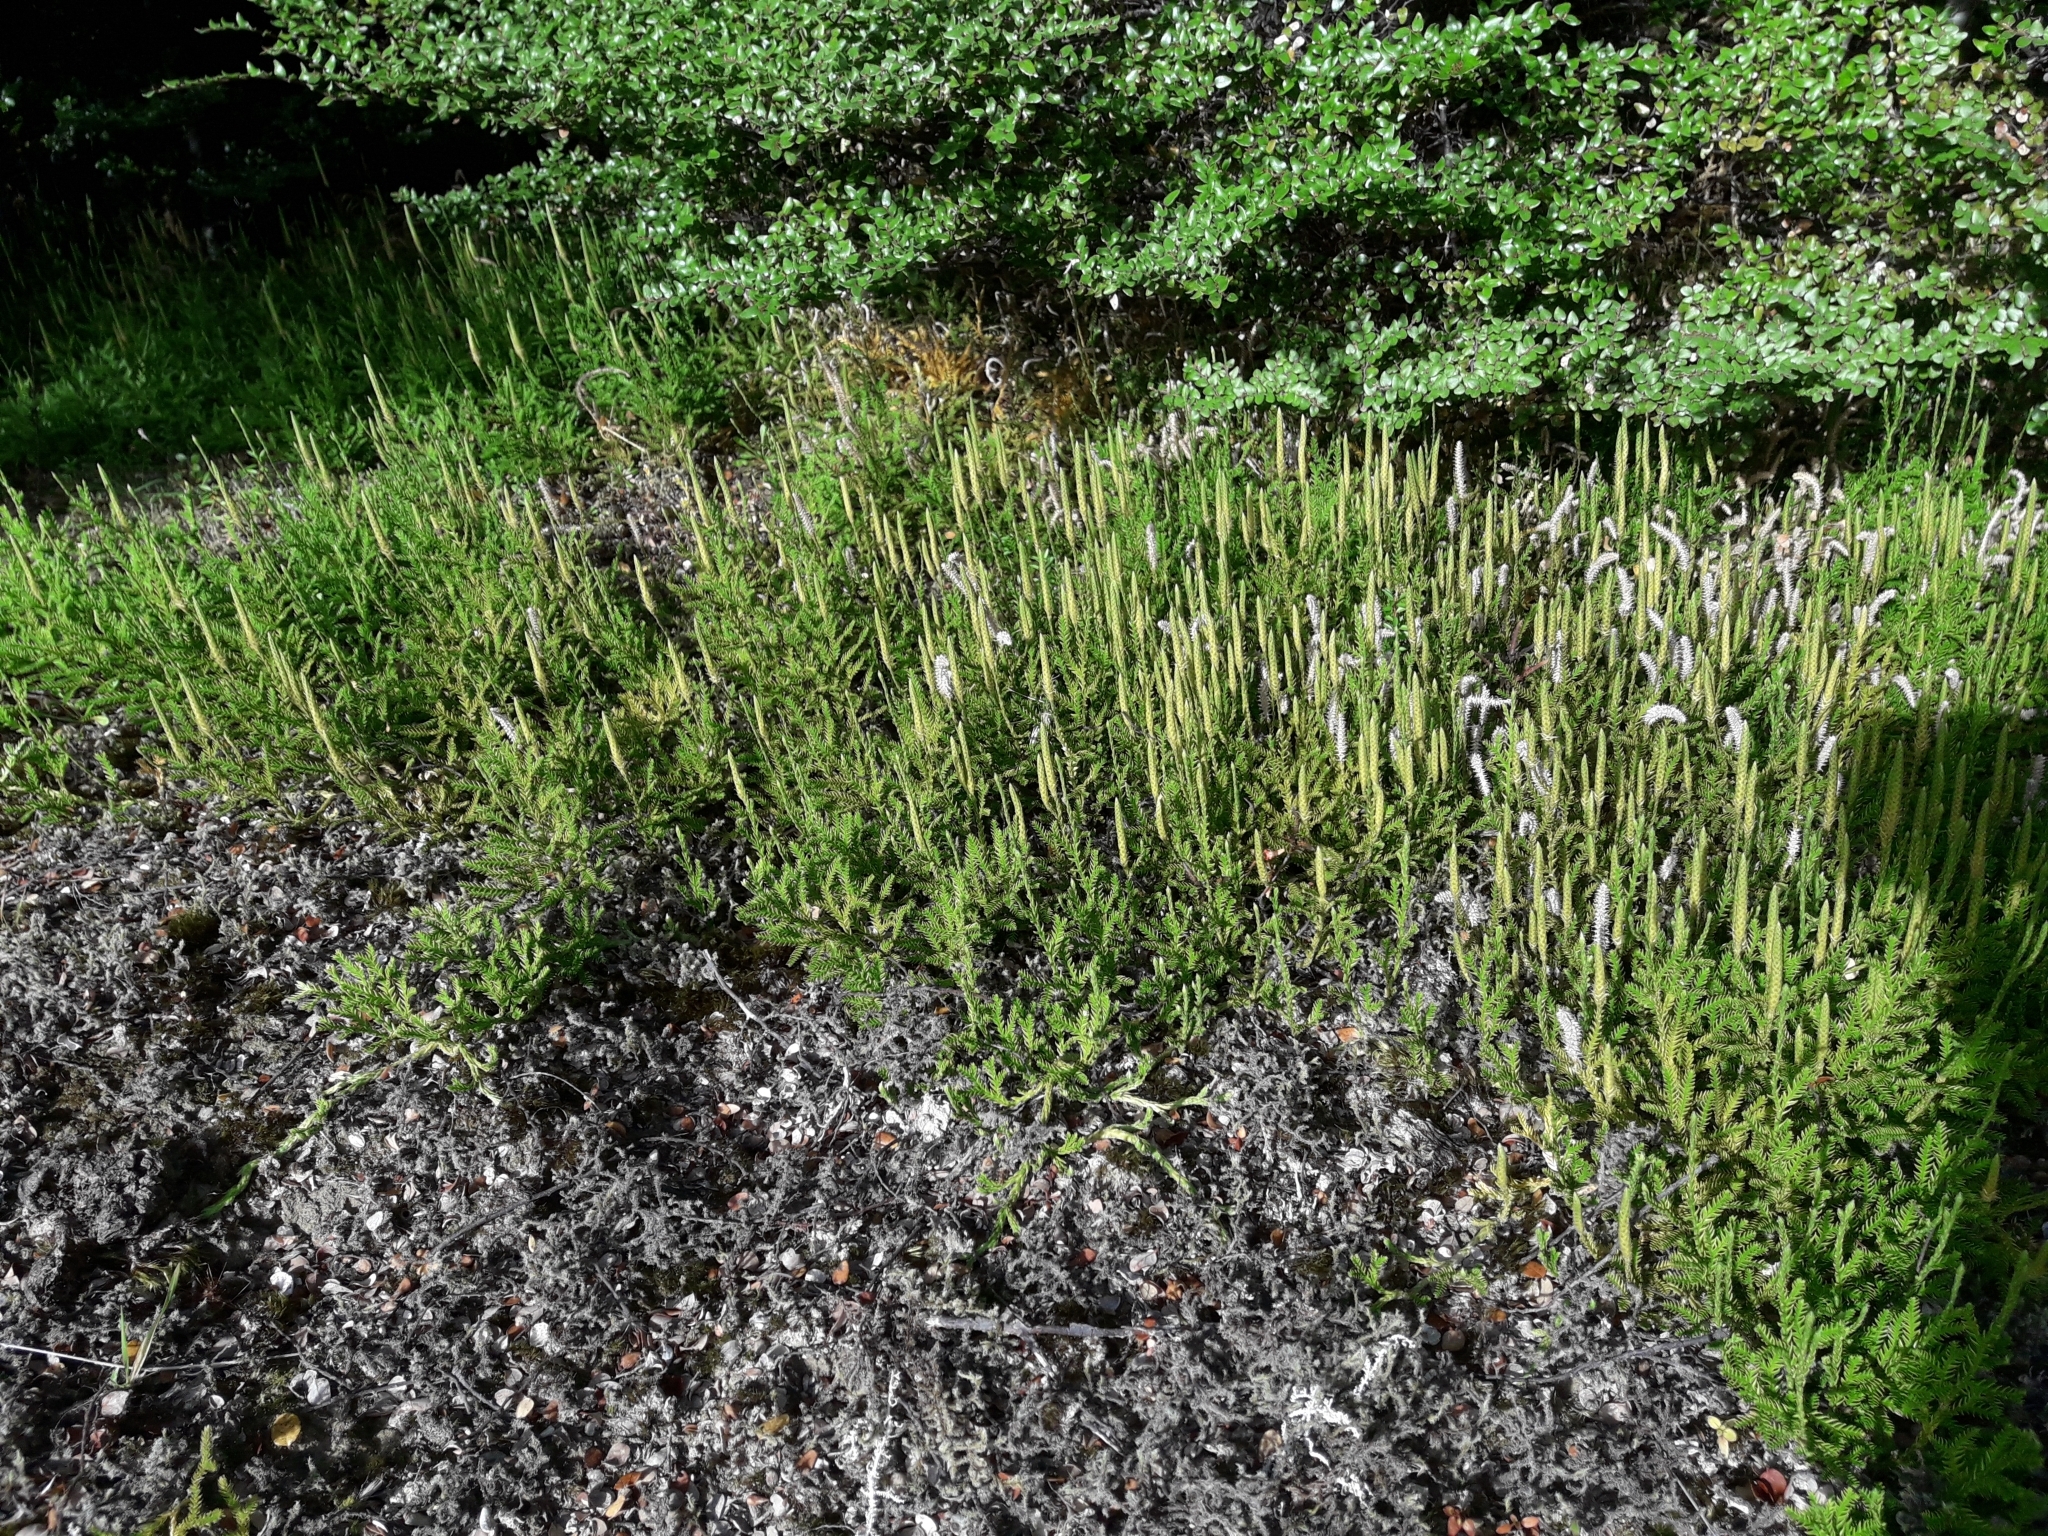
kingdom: Plantae
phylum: Tracheophyta
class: Lycopodiopsida
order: Lycopodiales
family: Lycopodiaceae
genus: Diphasium
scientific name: Diphasium scariosum
